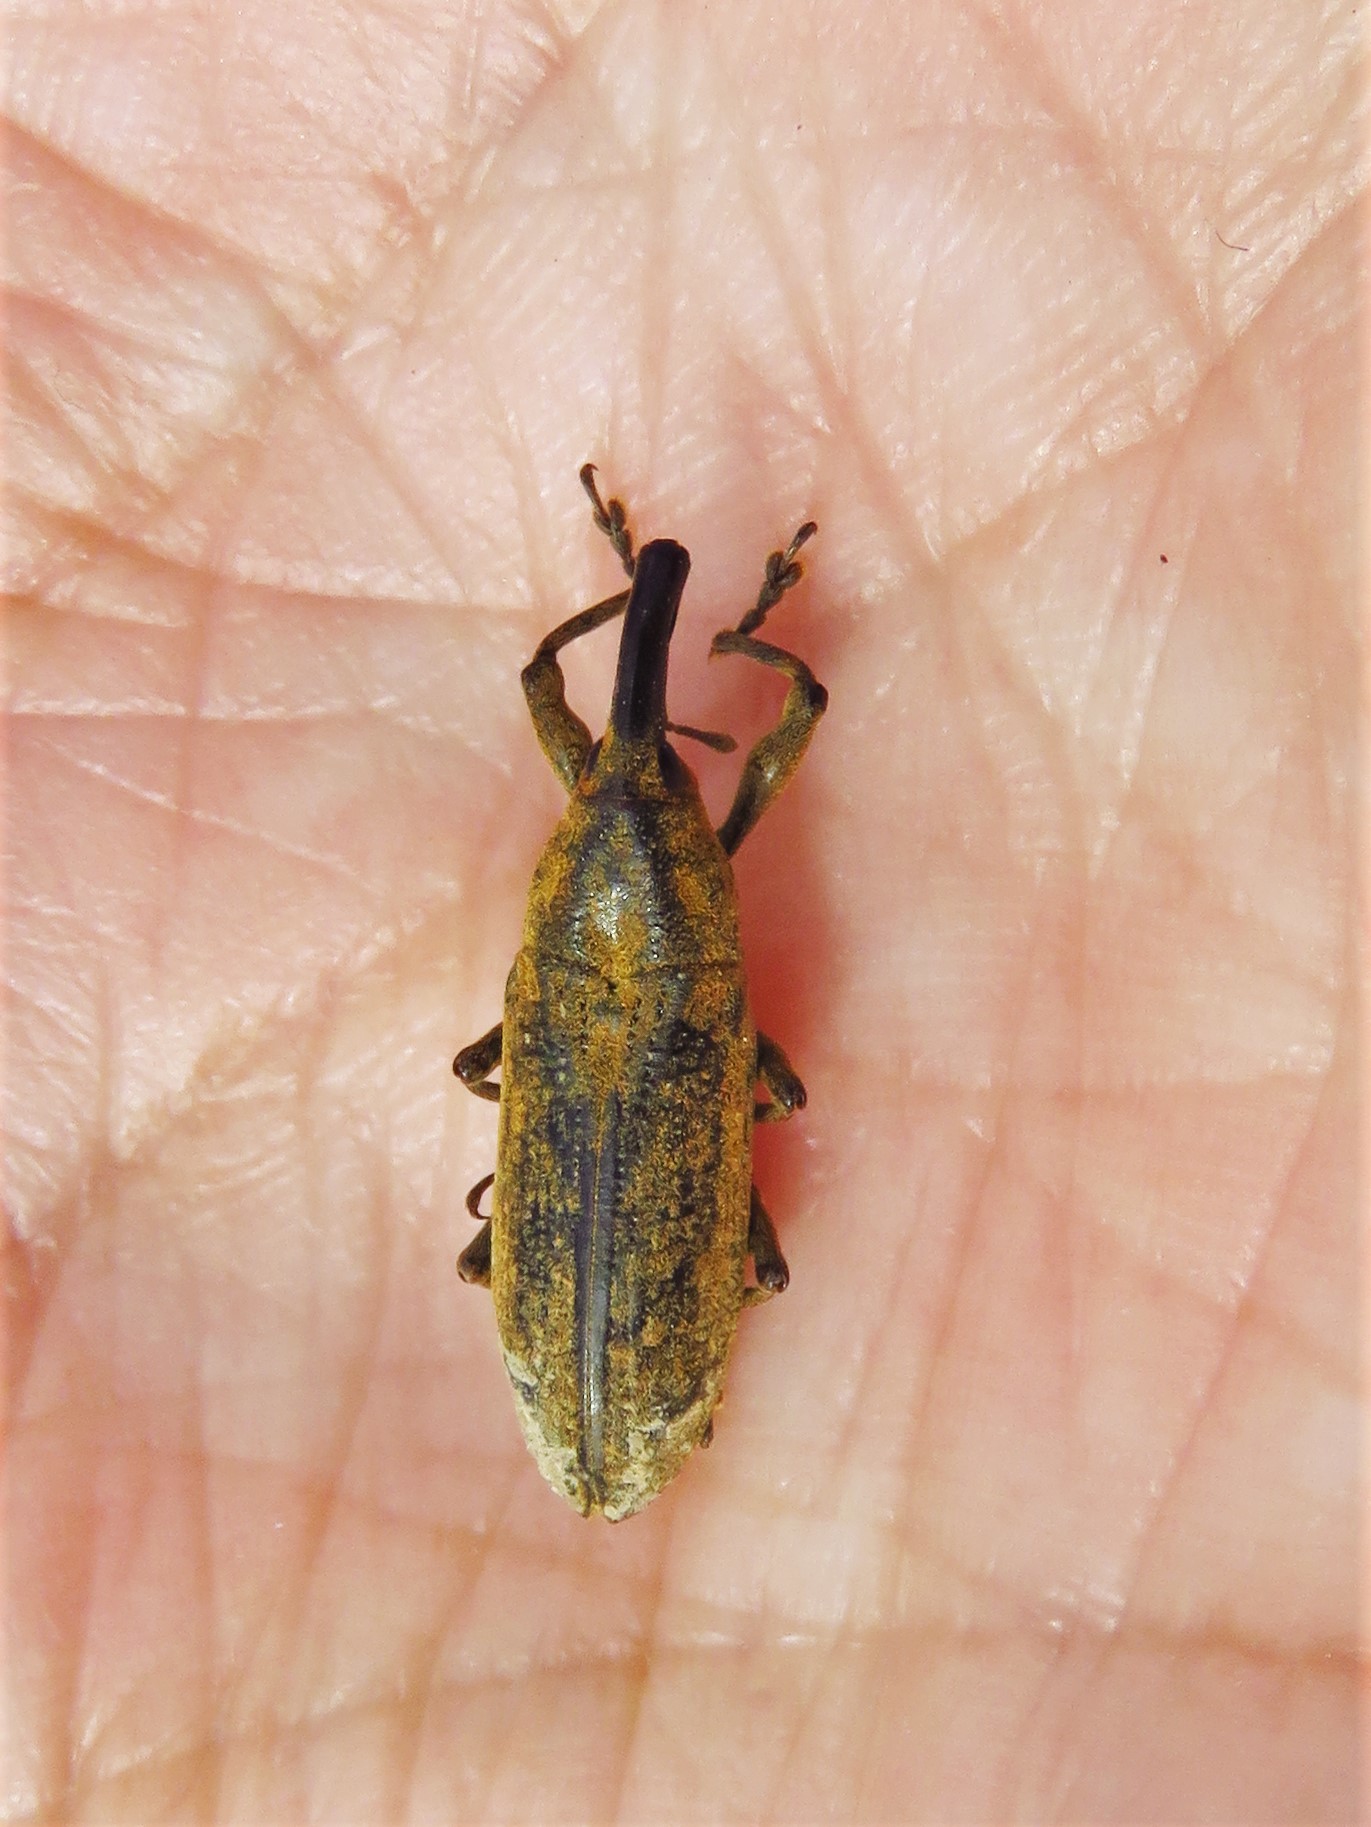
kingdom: Animalia
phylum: Arthropoda
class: Insecta
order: Coleoptera
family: Curculionidae
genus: Lixus
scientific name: Lixus concavus
